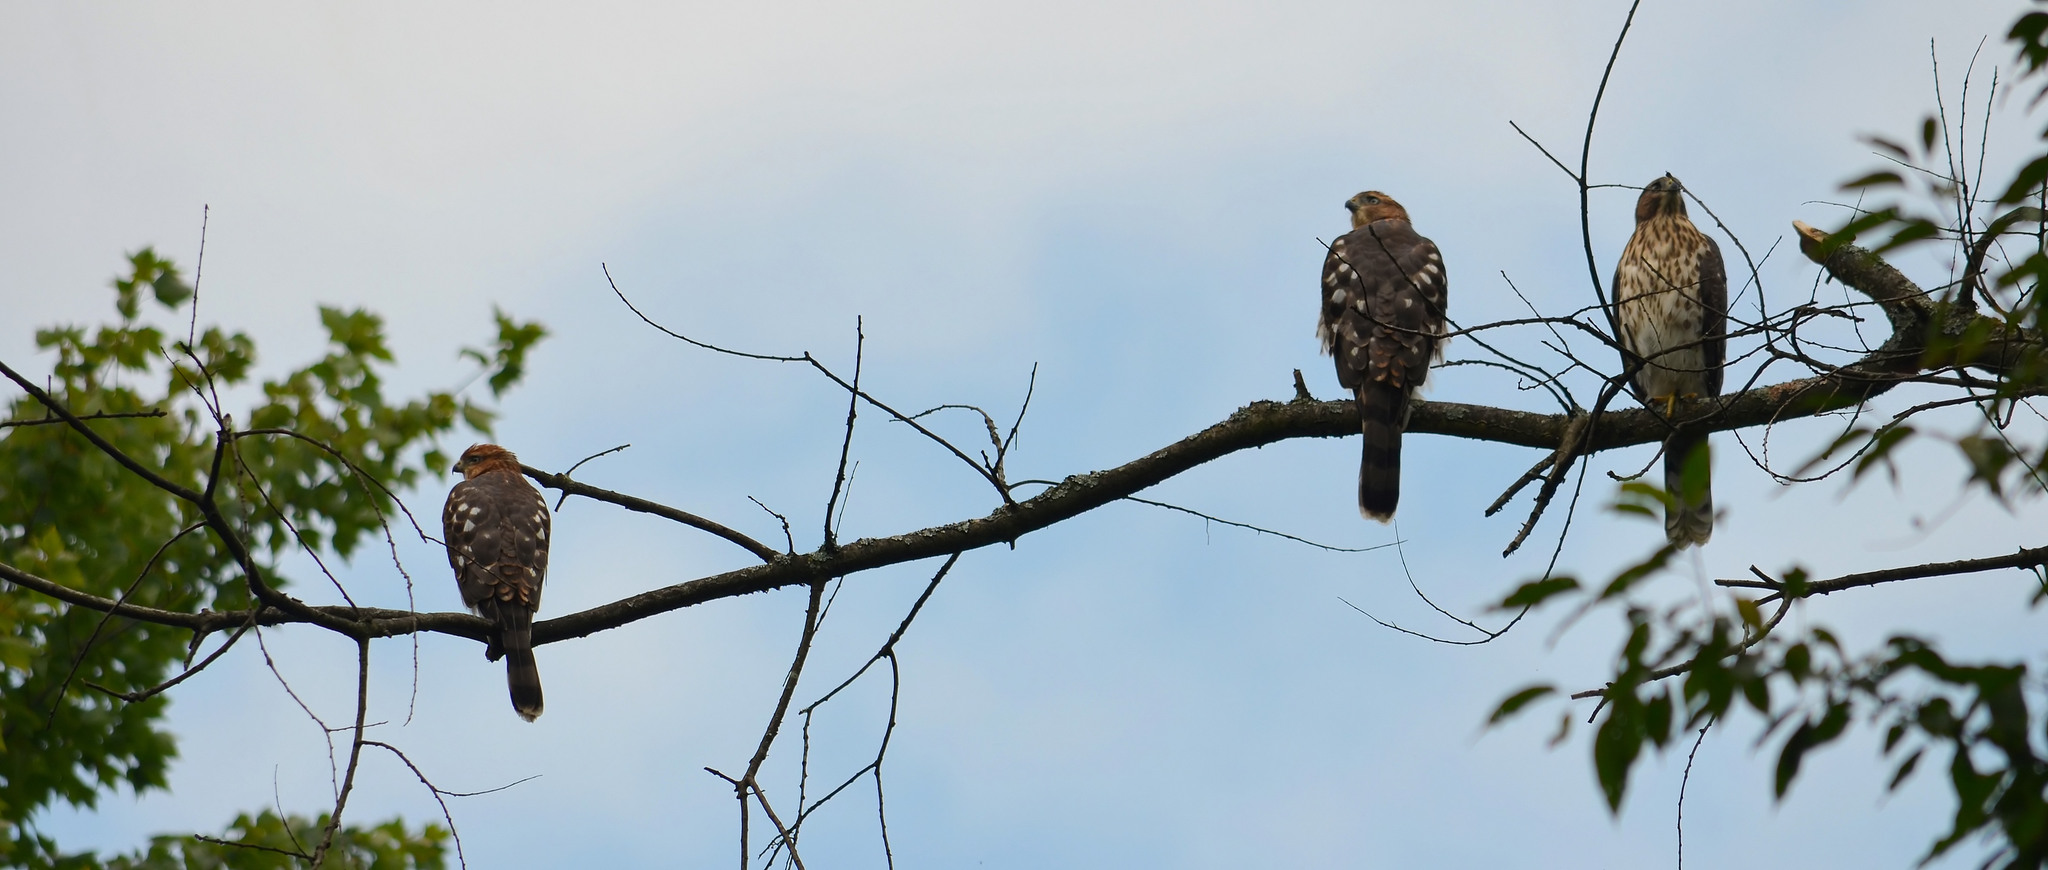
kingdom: Animalia
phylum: Chordata
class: Aves
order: Accipitriformes
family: Accipitridae
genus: Accipiter
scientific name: Accipiter cooperii
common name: Cooper's hawk
